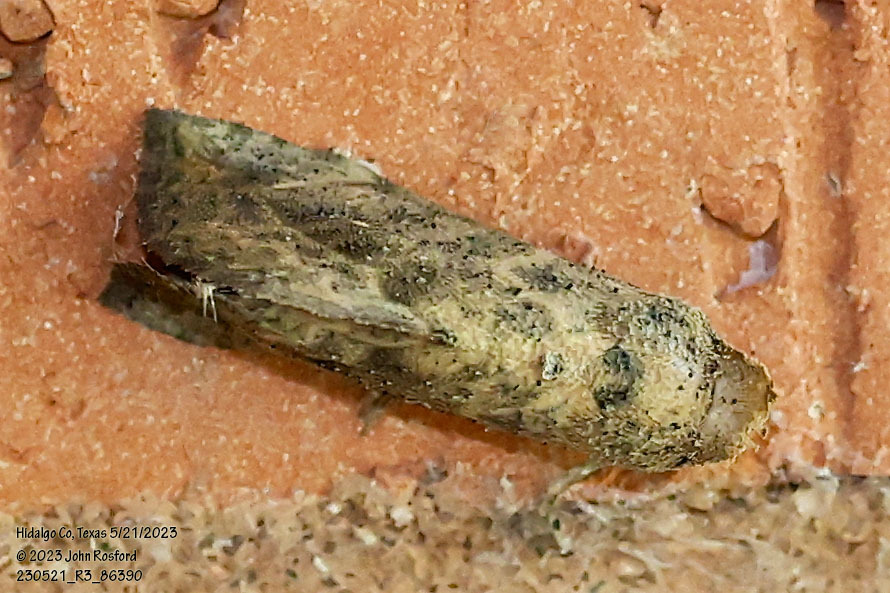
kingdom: Animalia
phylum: Arthropoda
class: Insecta
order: Lepidoptera
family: Erebidae
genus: Isogona
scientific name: Isogona snowi
